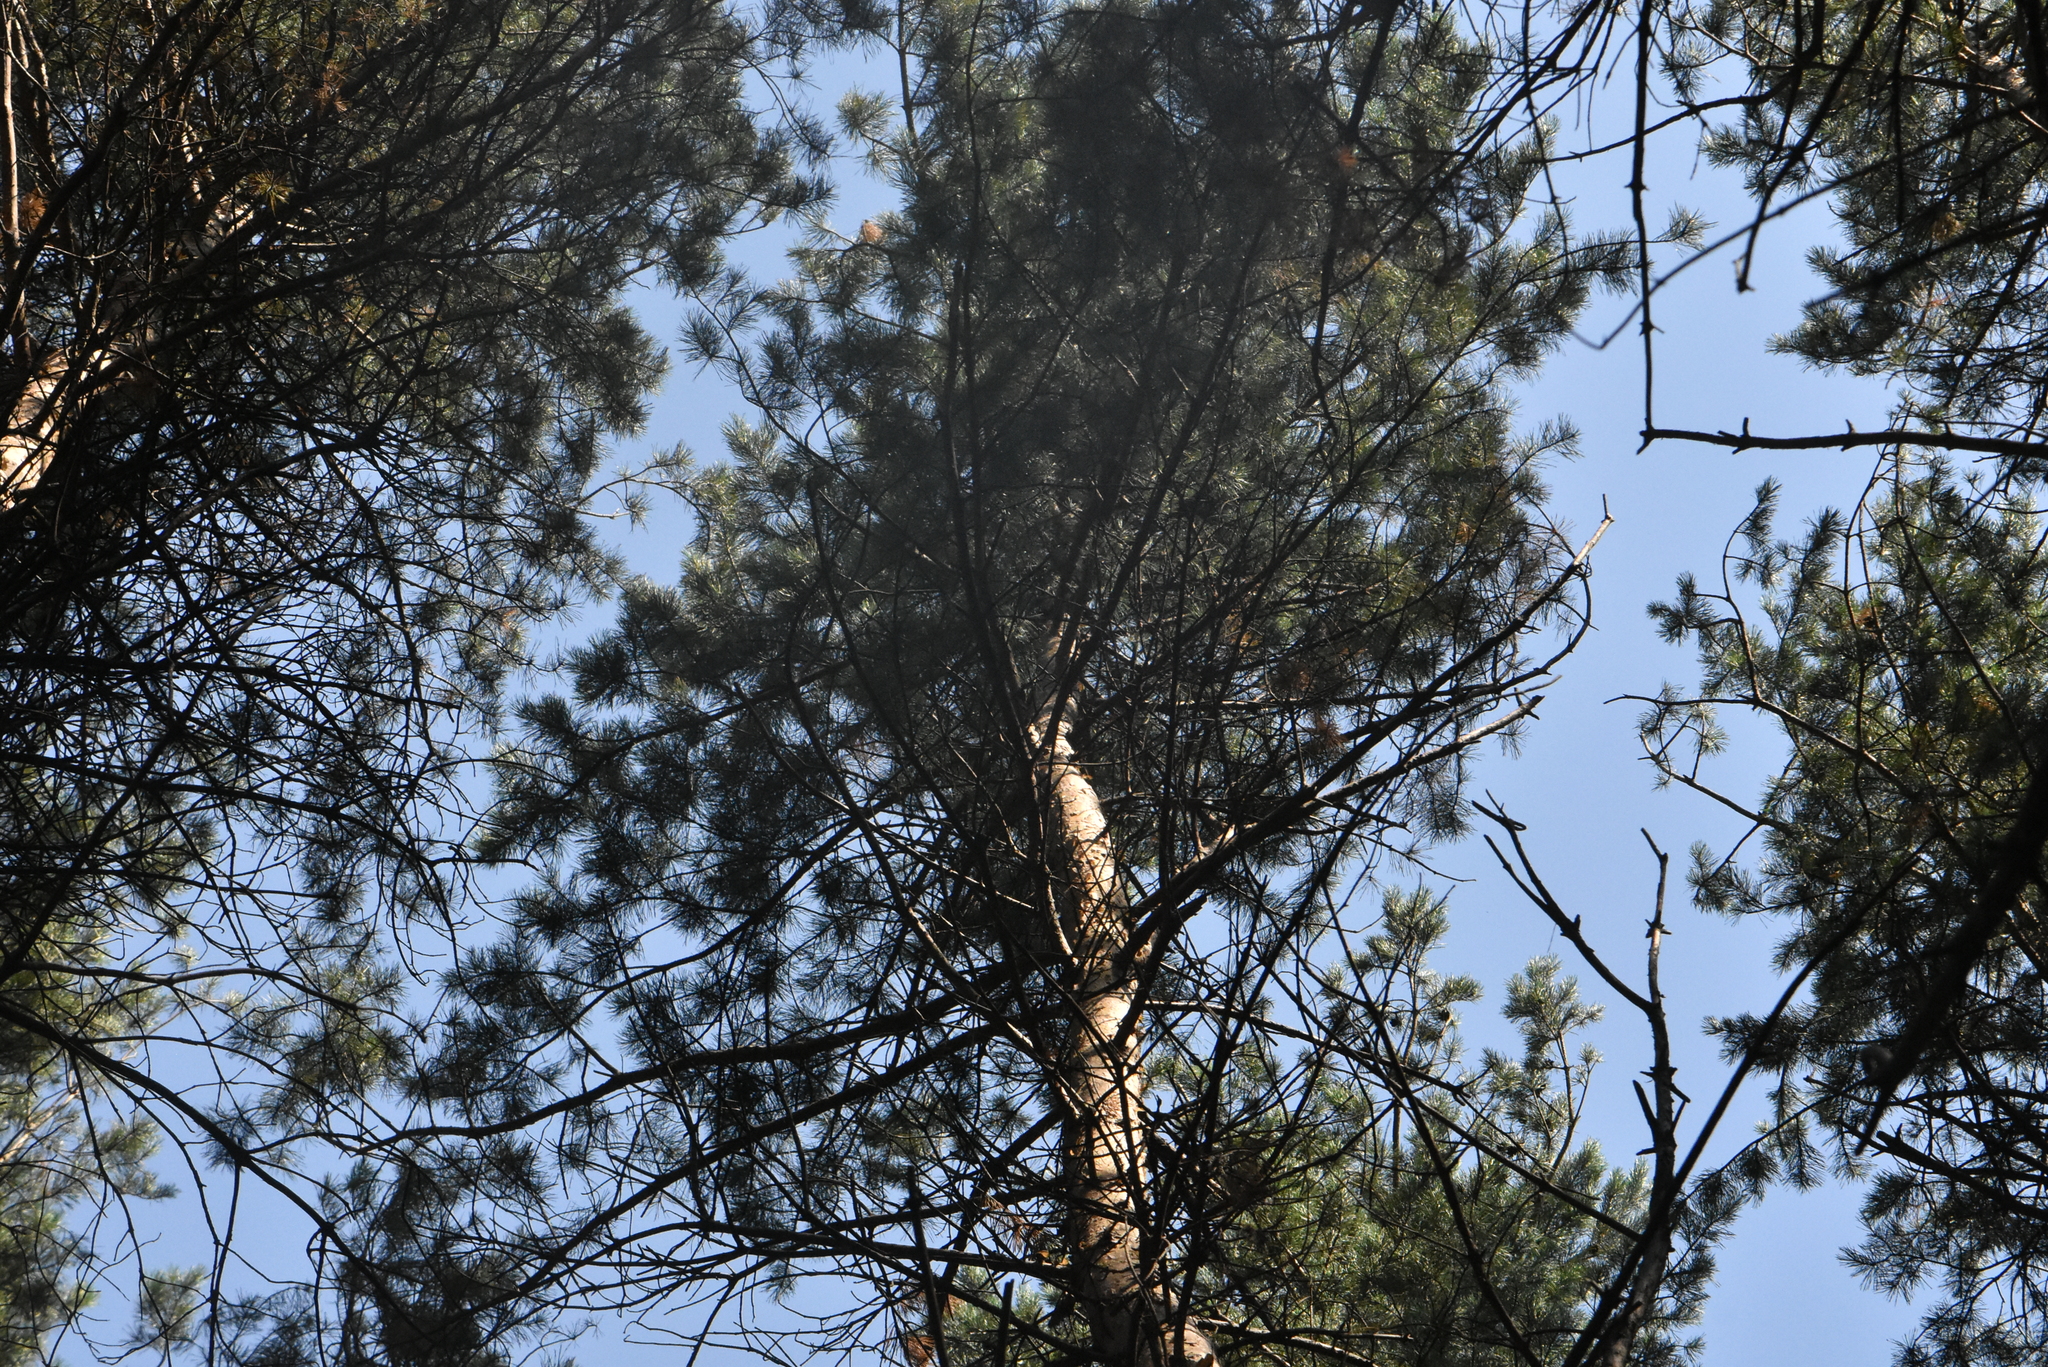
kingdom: Plantae
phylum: Tracheophyta
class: Pinopsida
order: Pinales
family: Pinaceae
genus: Pinus
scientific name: Pinus sylvestris
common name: Scots pine
